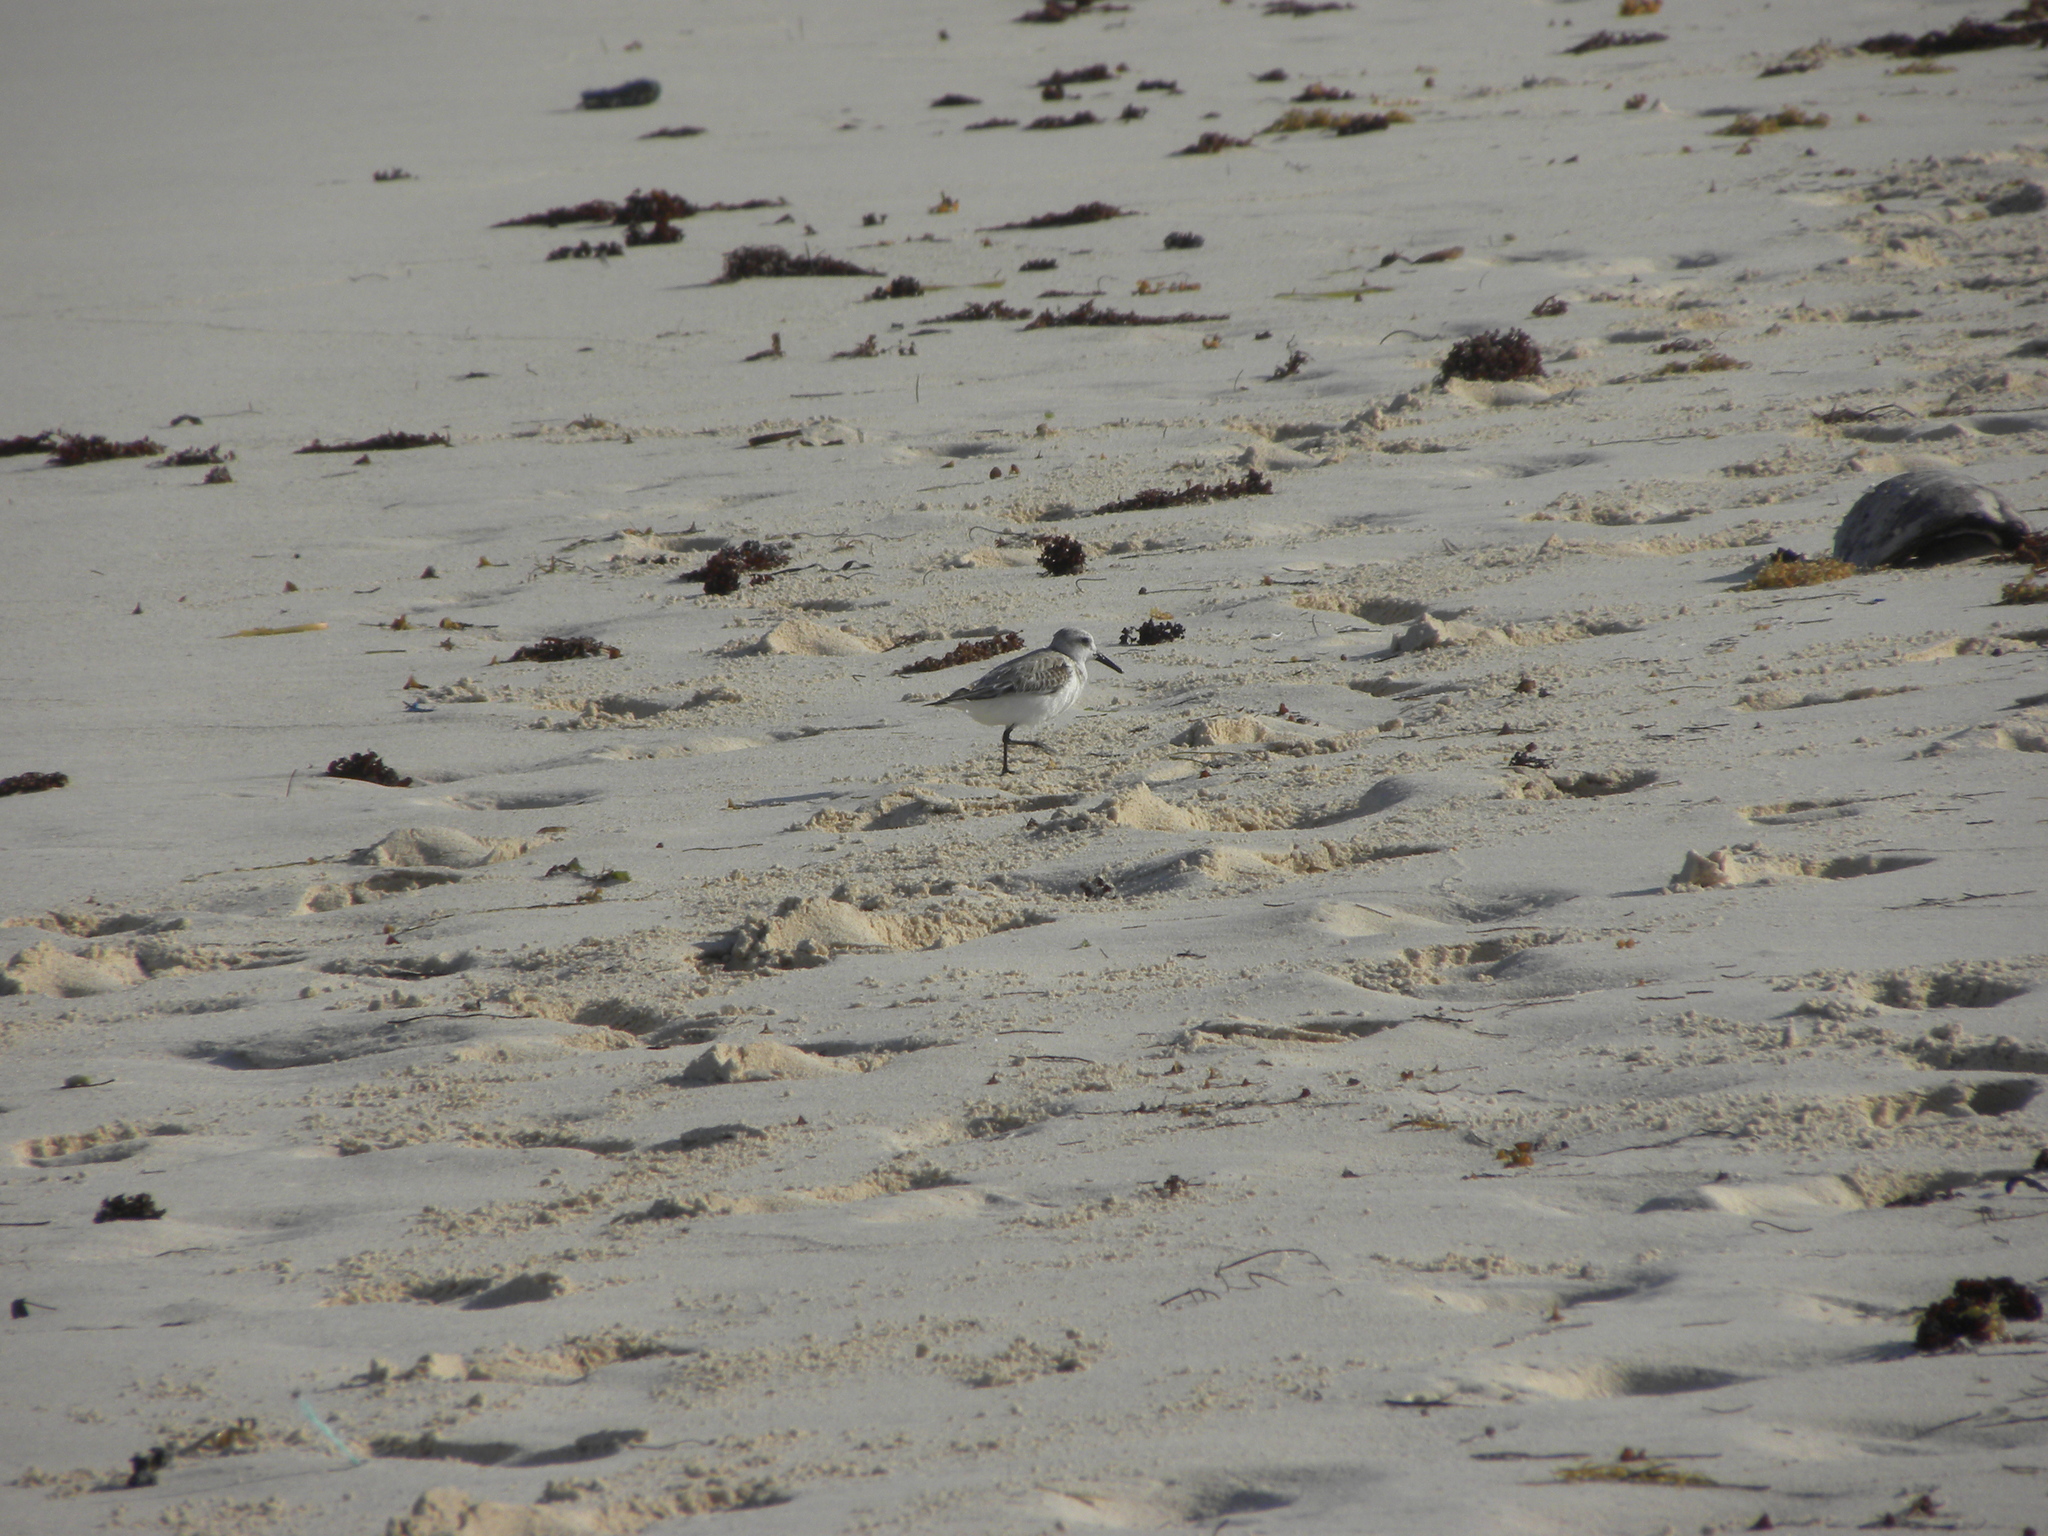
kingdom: Animalia
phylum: Chordata
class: Aves
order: Charadriiformes
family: Scolopacidae
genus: Calidris
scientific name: Calidris alba
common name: Sanderling
